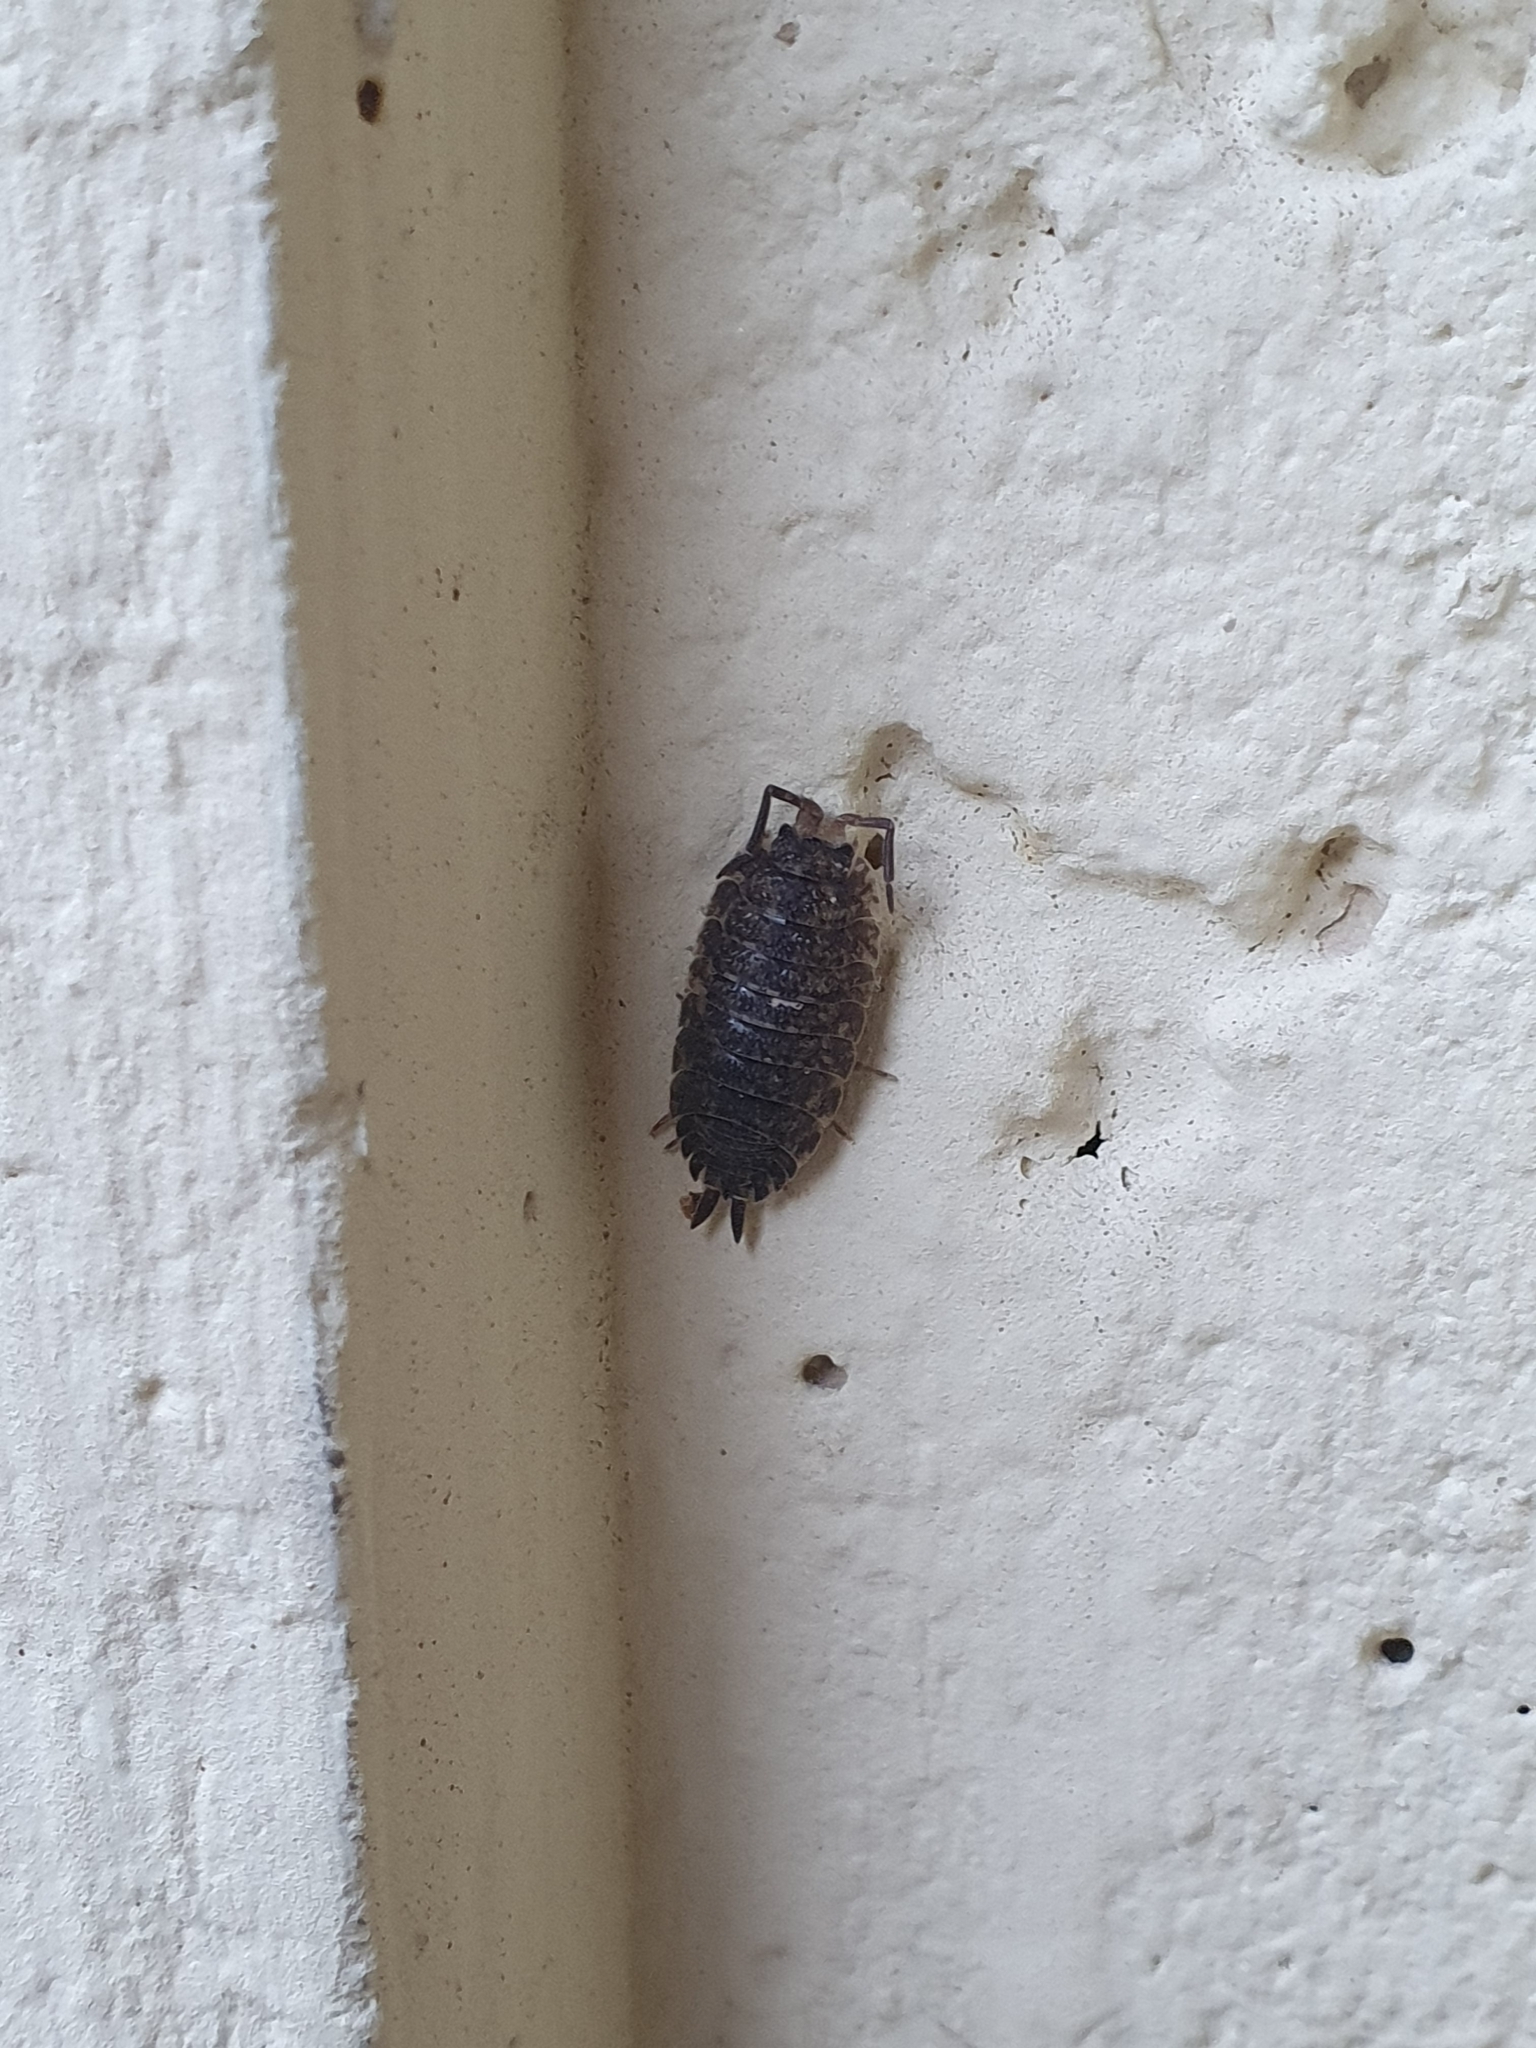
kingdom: Animalia
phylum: Arthropoda
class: Malacostraca
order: Isopoda
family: Porcellionidae
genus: Porcellio
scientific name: Porcellio scaber
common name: Common rough woodlouse
